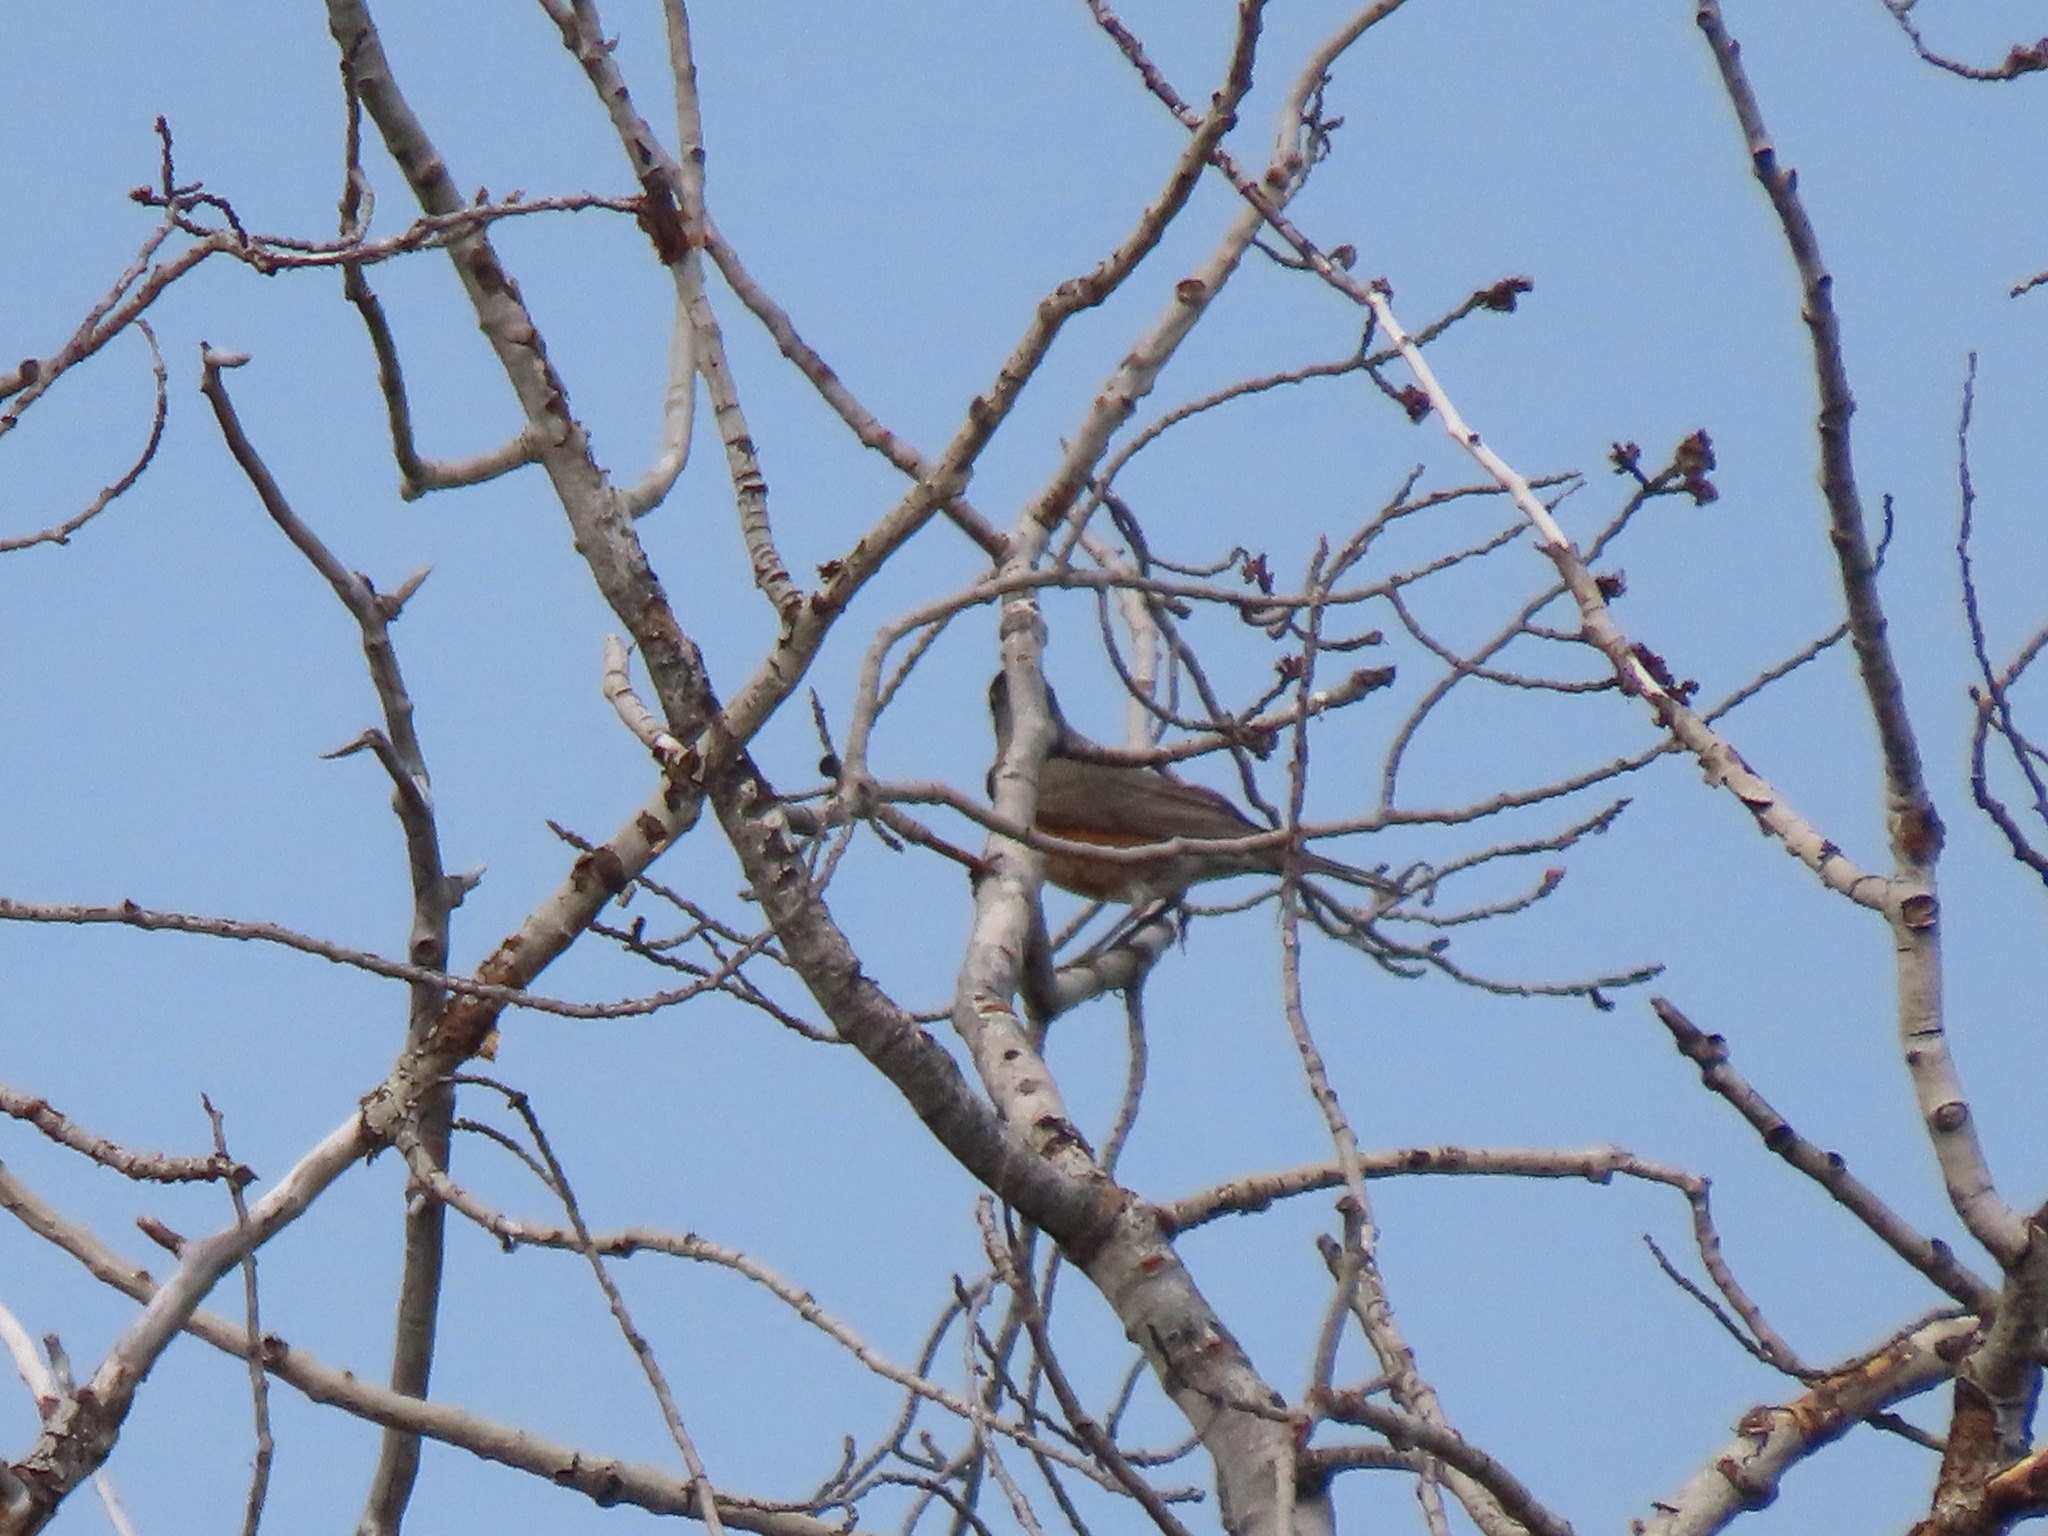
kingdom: Animalia
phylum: Chordata
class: Aves
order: Passeriformes
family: Turdidae
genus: Turdus
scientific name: Turdus migratorius
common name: American robin
